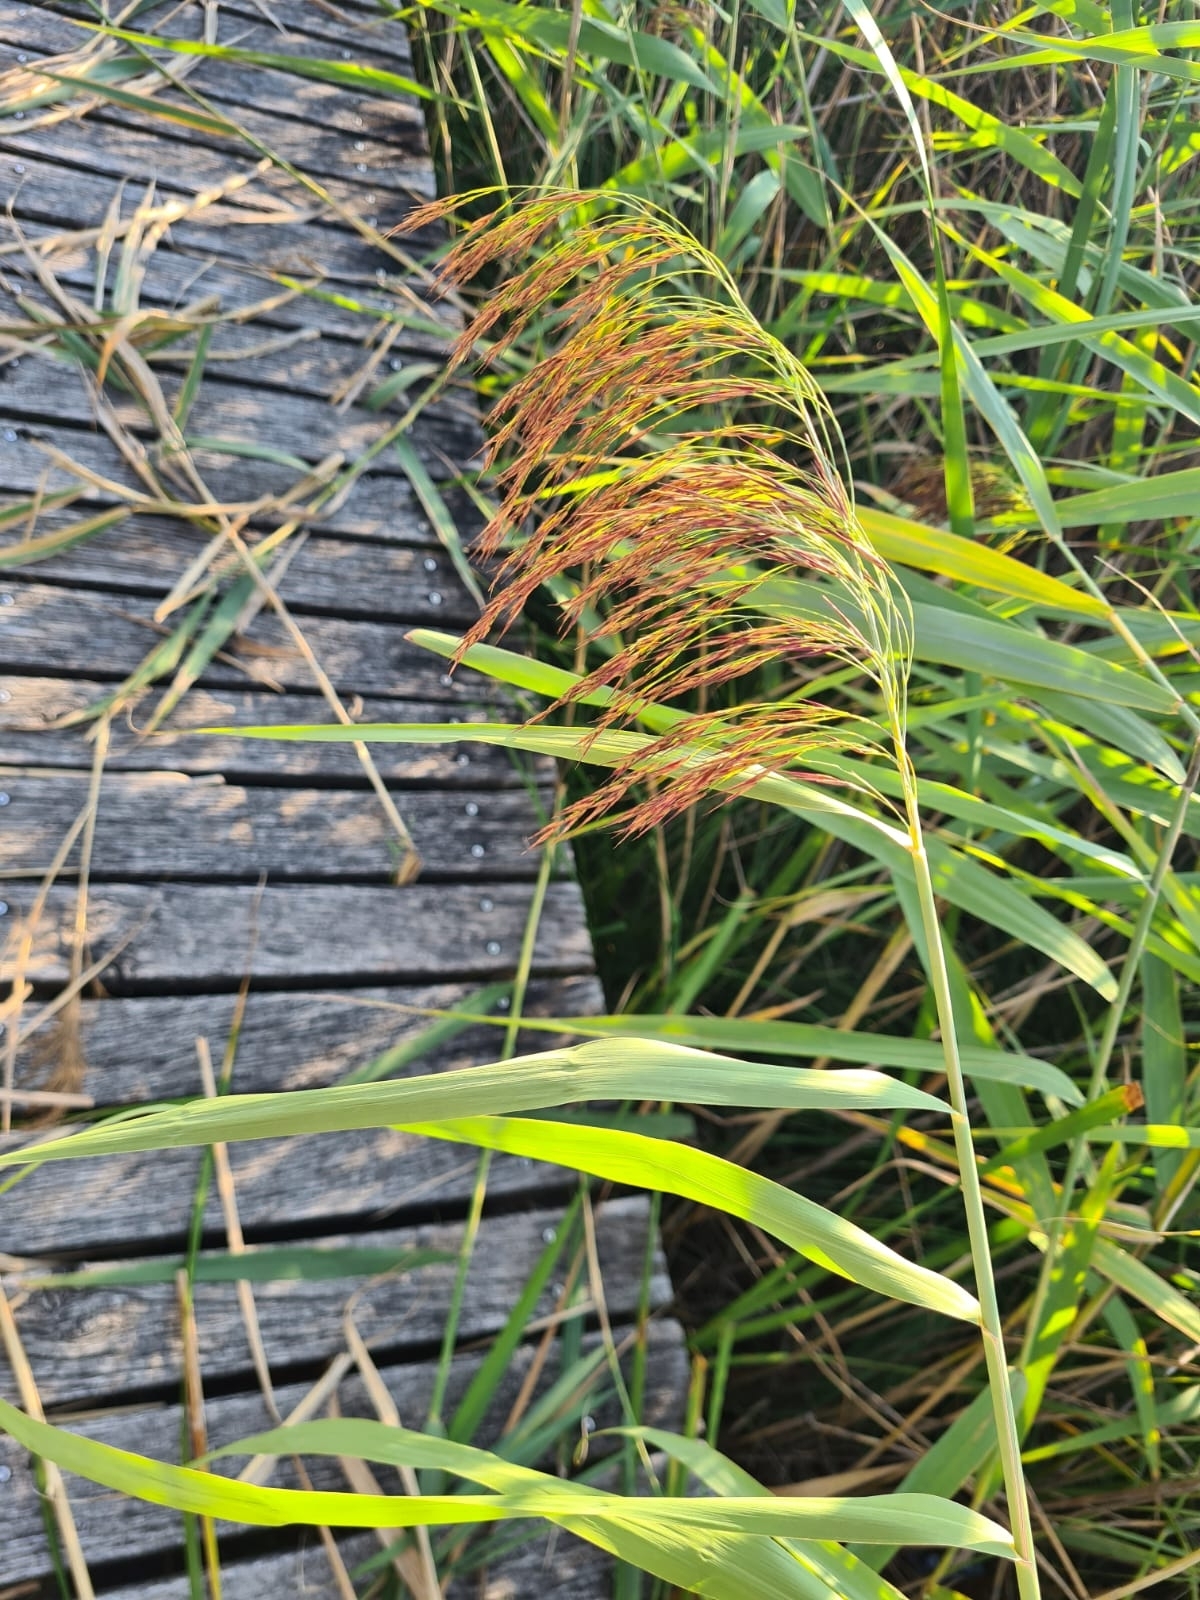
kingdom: Plantae
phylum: Tracheophyta
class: Liliopsida
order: Poales
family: Poaceae
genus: Phragmites
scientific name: Phragmites australis
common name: Common reed
